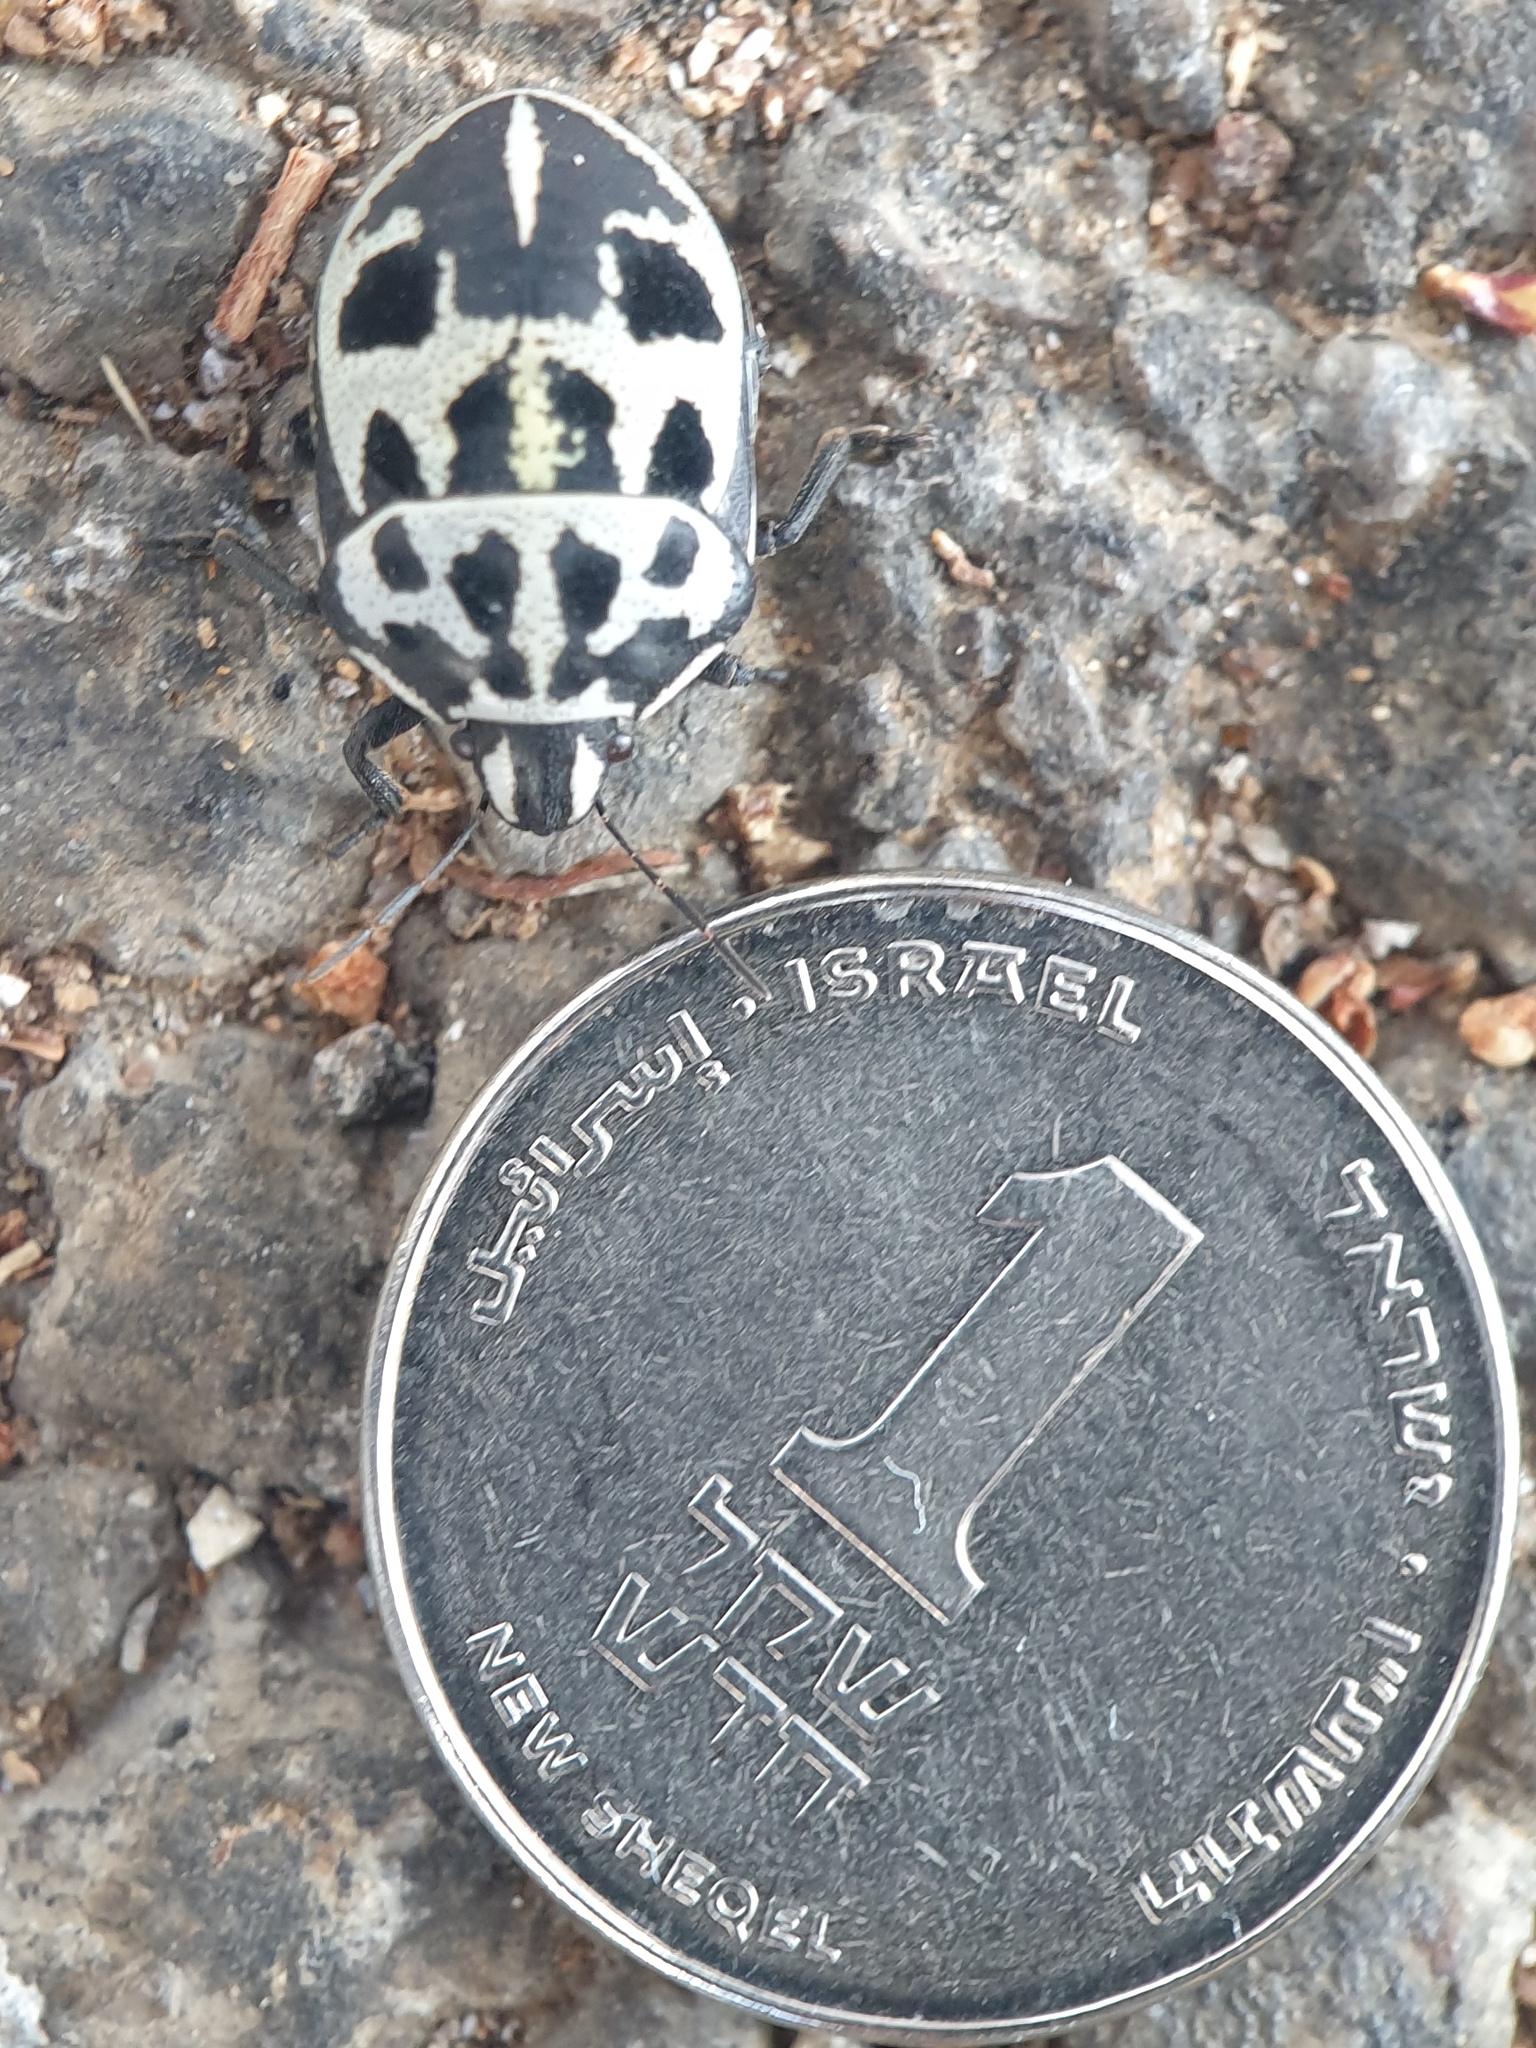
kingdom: Animalia
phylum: Arthropoda
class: Insecta
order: Hemiptera
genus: Deroplax
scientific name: Deroplax silphoides
